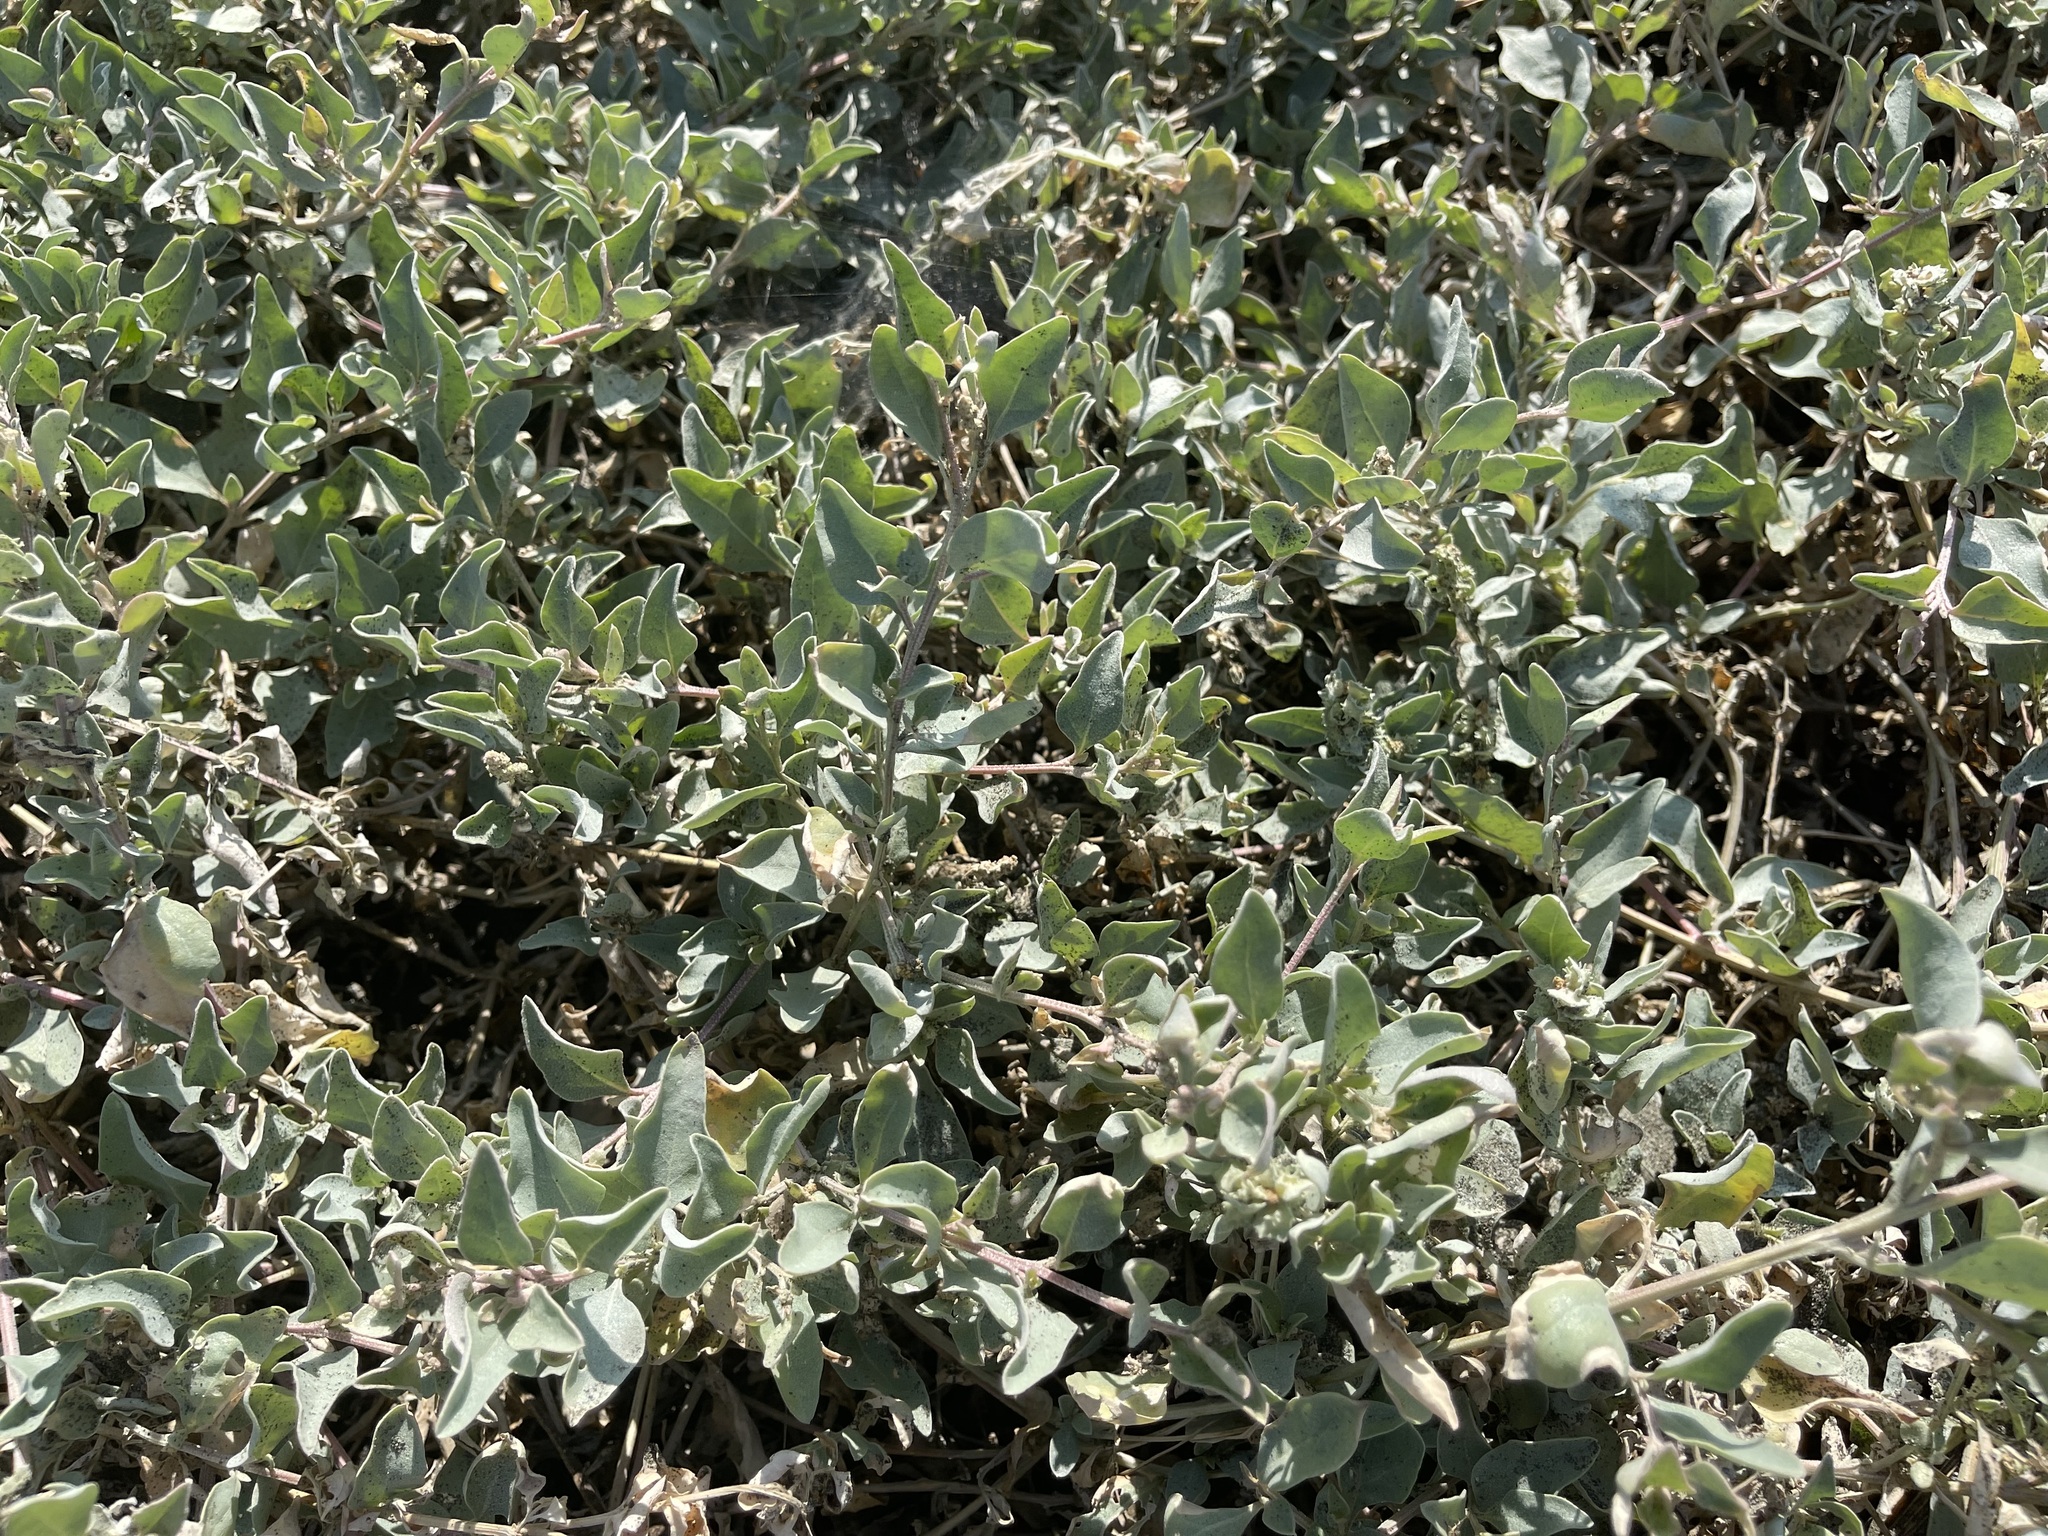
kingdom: Plantae
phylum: Tracheophyta
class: Magnoliopsida
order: Caryophyllales
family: Amaranthaceae
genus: Atriplex
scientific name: Atriplex maximowicziana
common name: Maximowicz's saltbush
